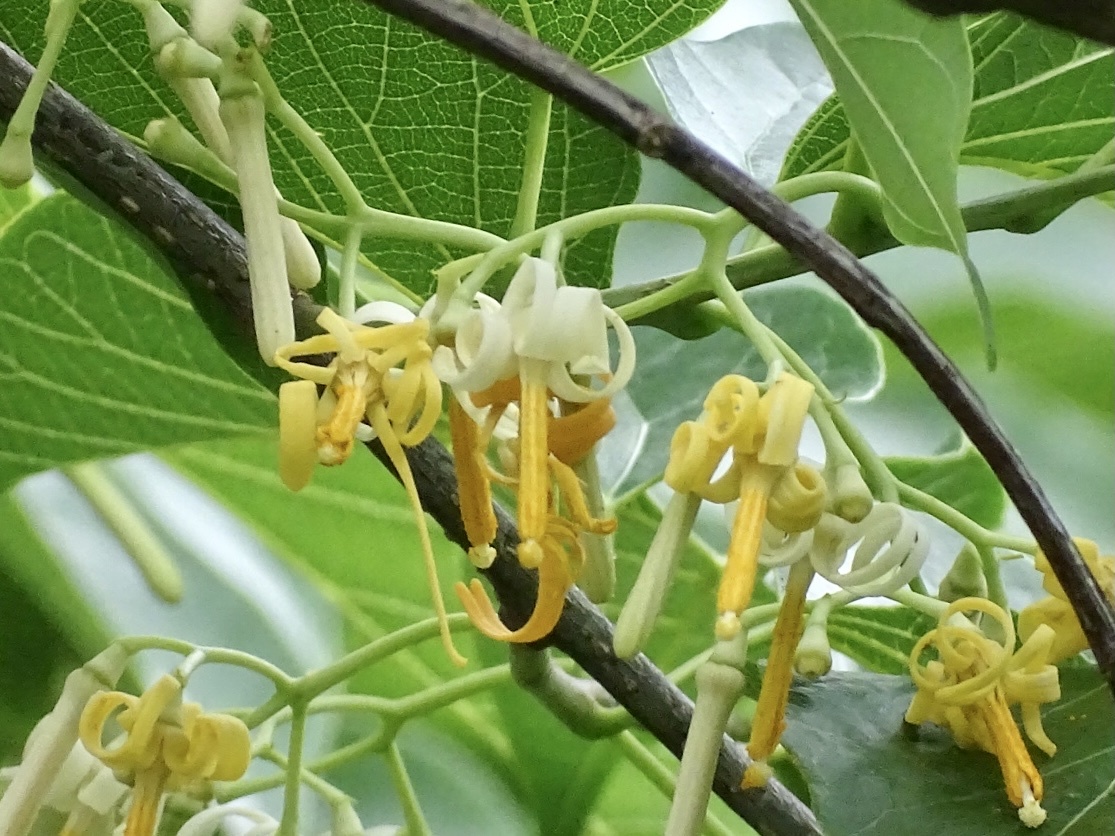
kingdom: Plantae
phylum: Tracheophyta
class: Magnoliopsida
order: Cornales
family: Cornaceae
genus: Alangium
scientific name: Alangium chinense
